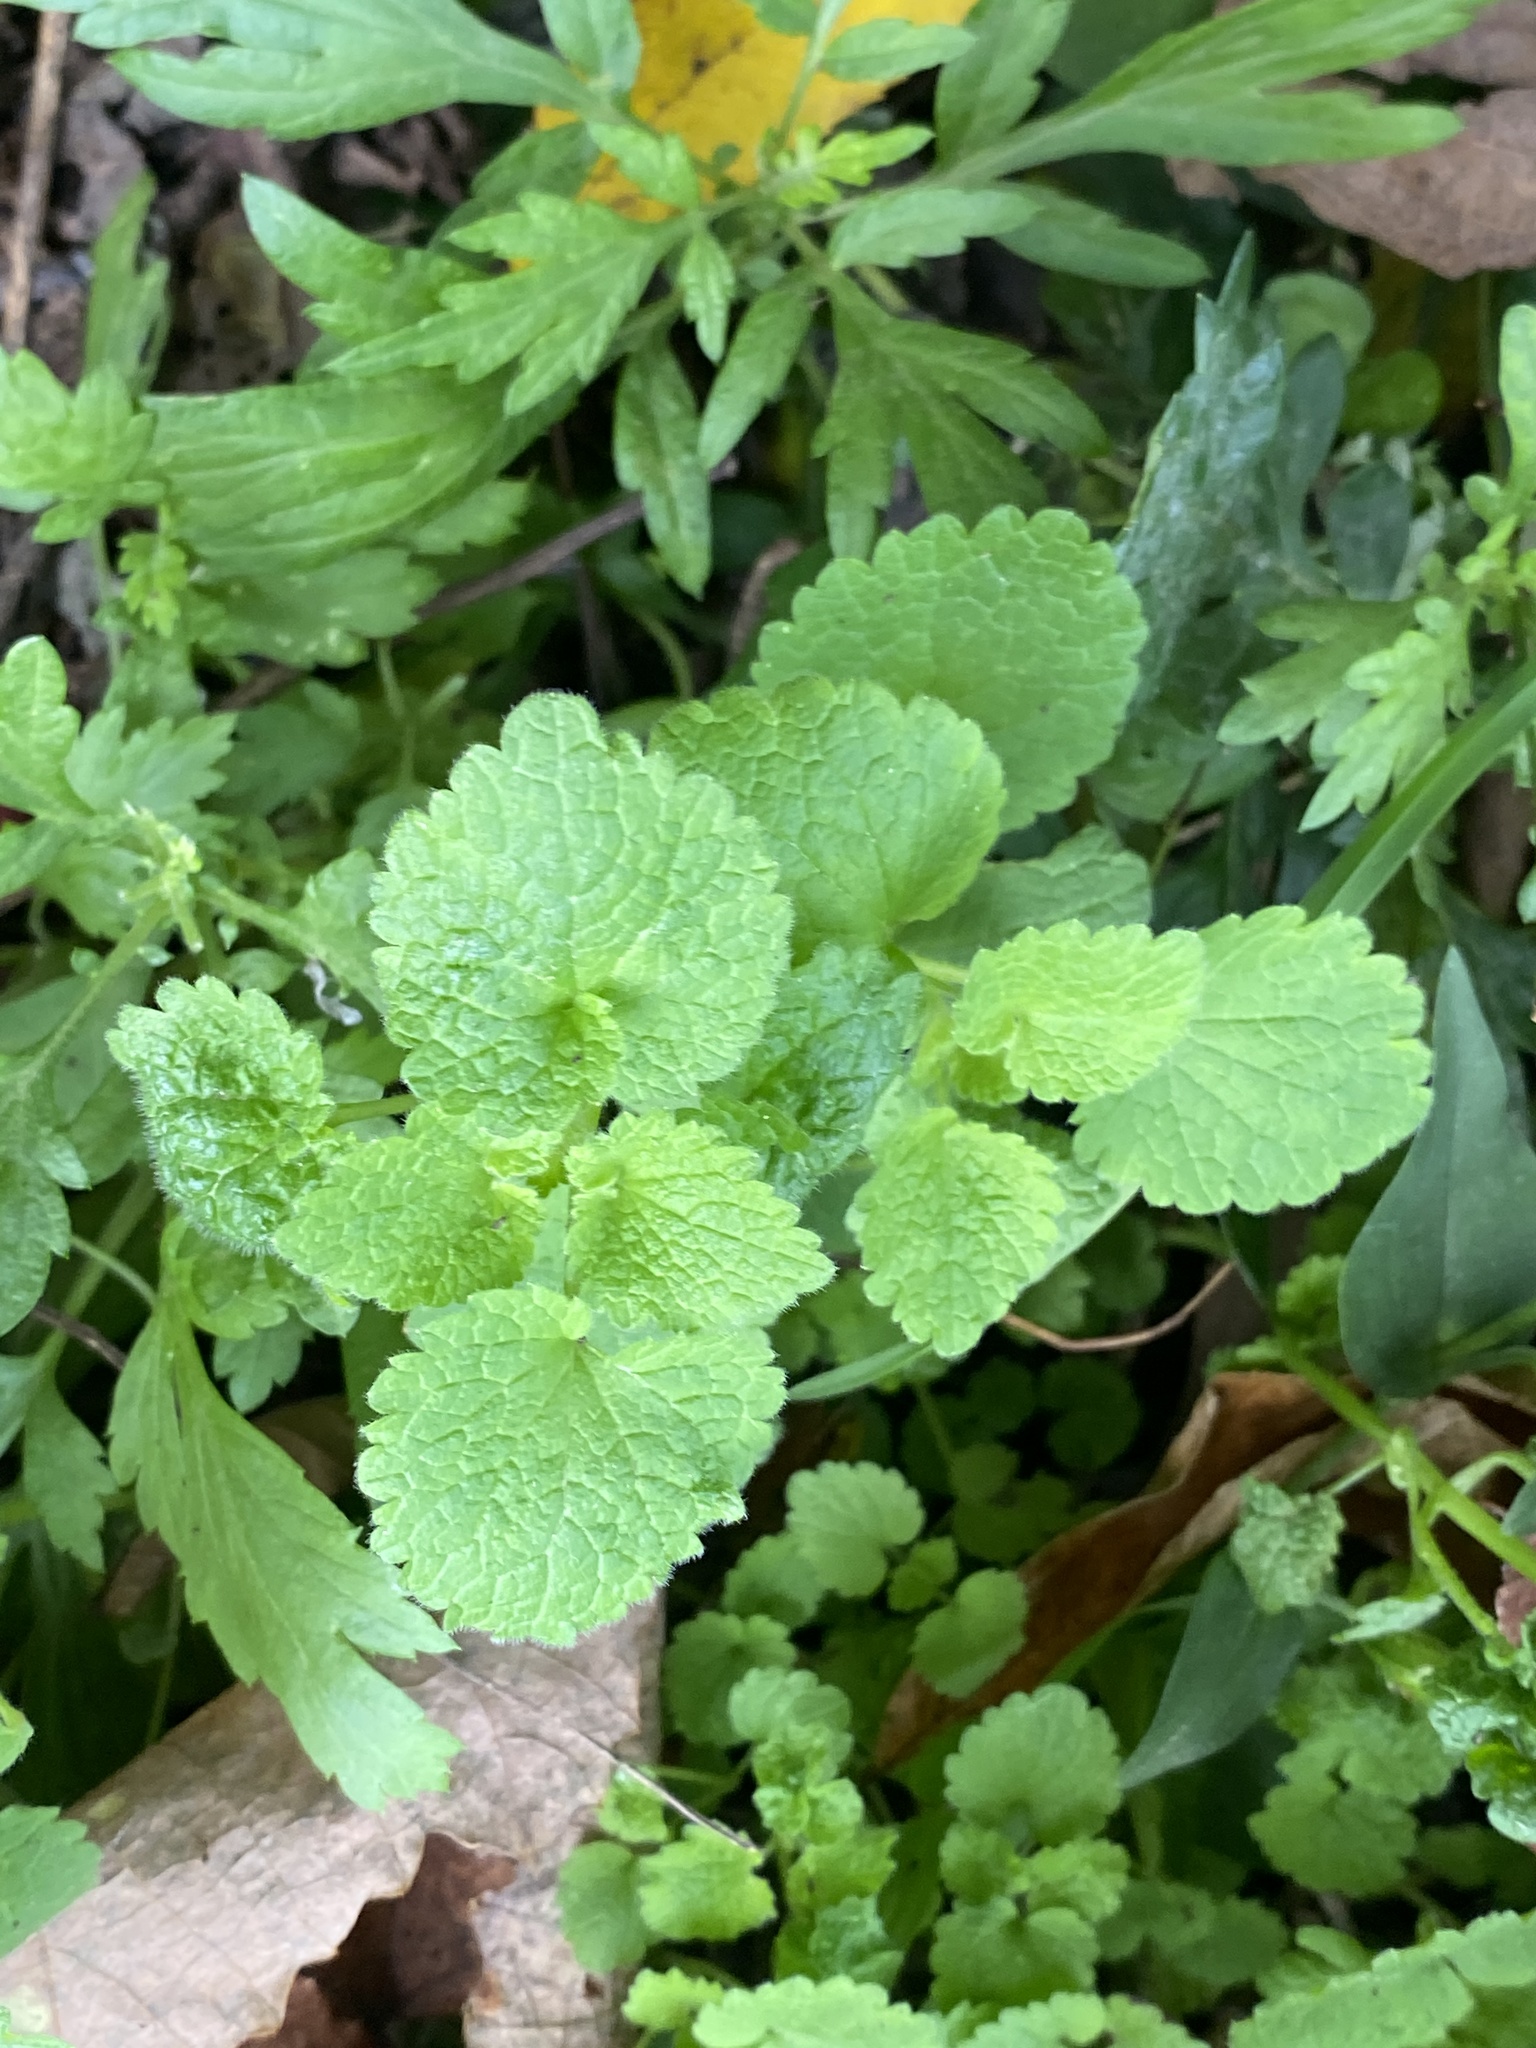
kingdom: Plantae
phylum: Tracheophyta
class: Magnoliopsida
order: Lamiales
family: Lamiaceae
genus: Lamium
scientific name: Lamium purpureum
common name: Red dead-nettle
